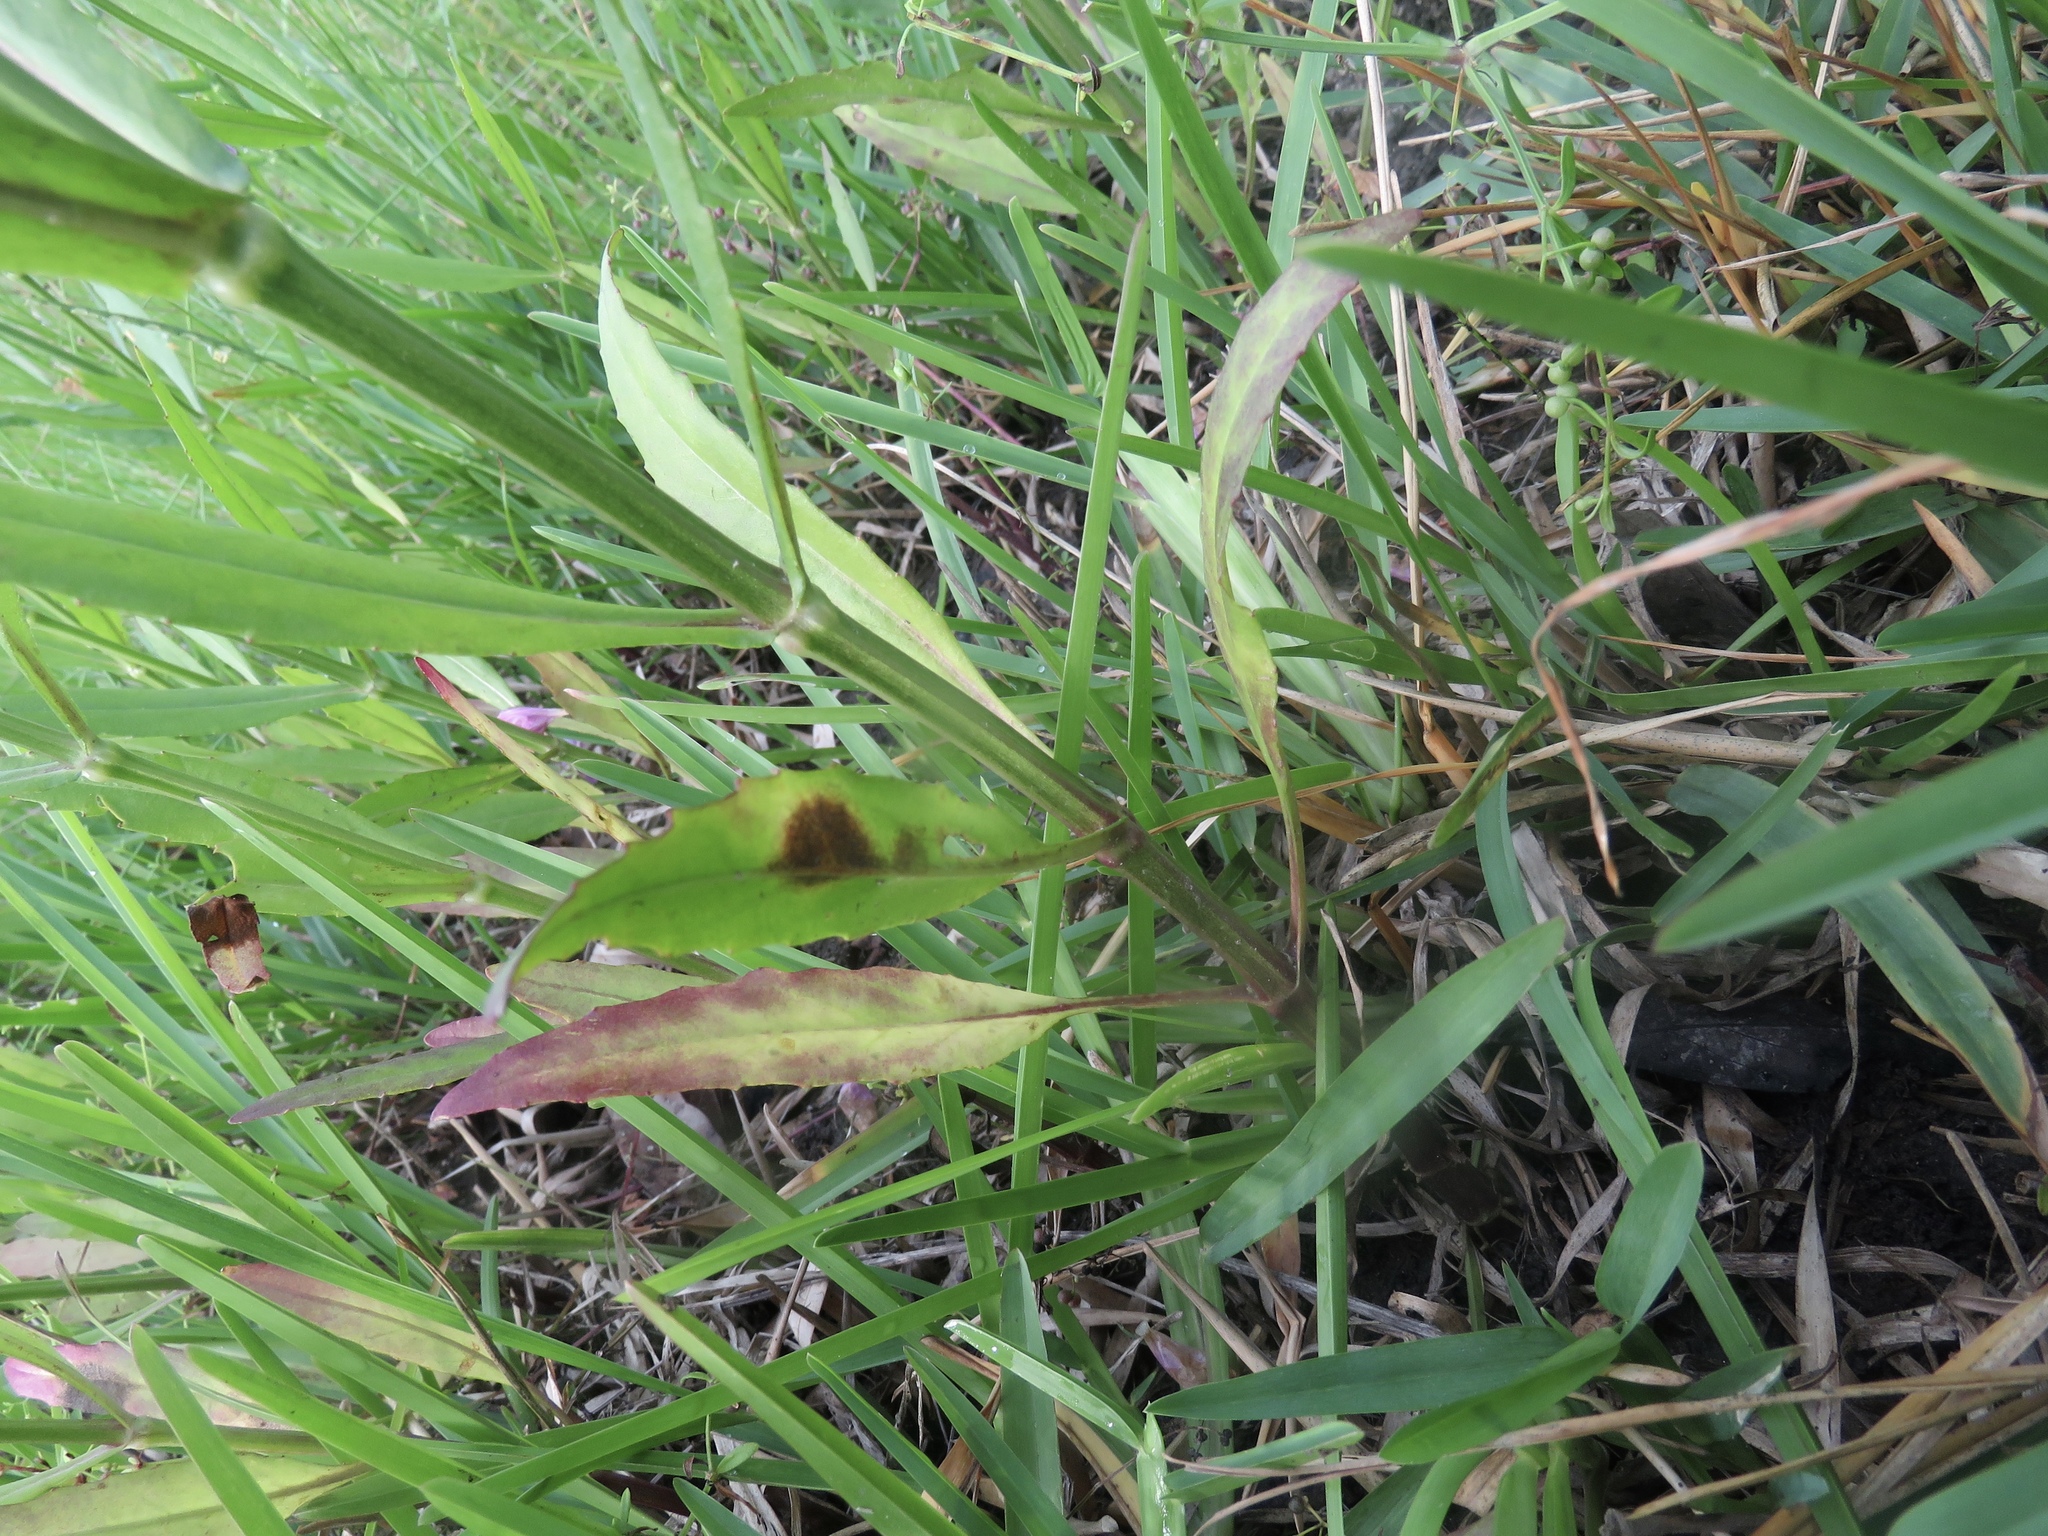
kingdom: Plantae
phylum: Tracheophyta
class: Magnoliopsida
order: Lamiales
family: Lamiaceae
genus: Physostegia
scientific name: Physostegia longisepala
